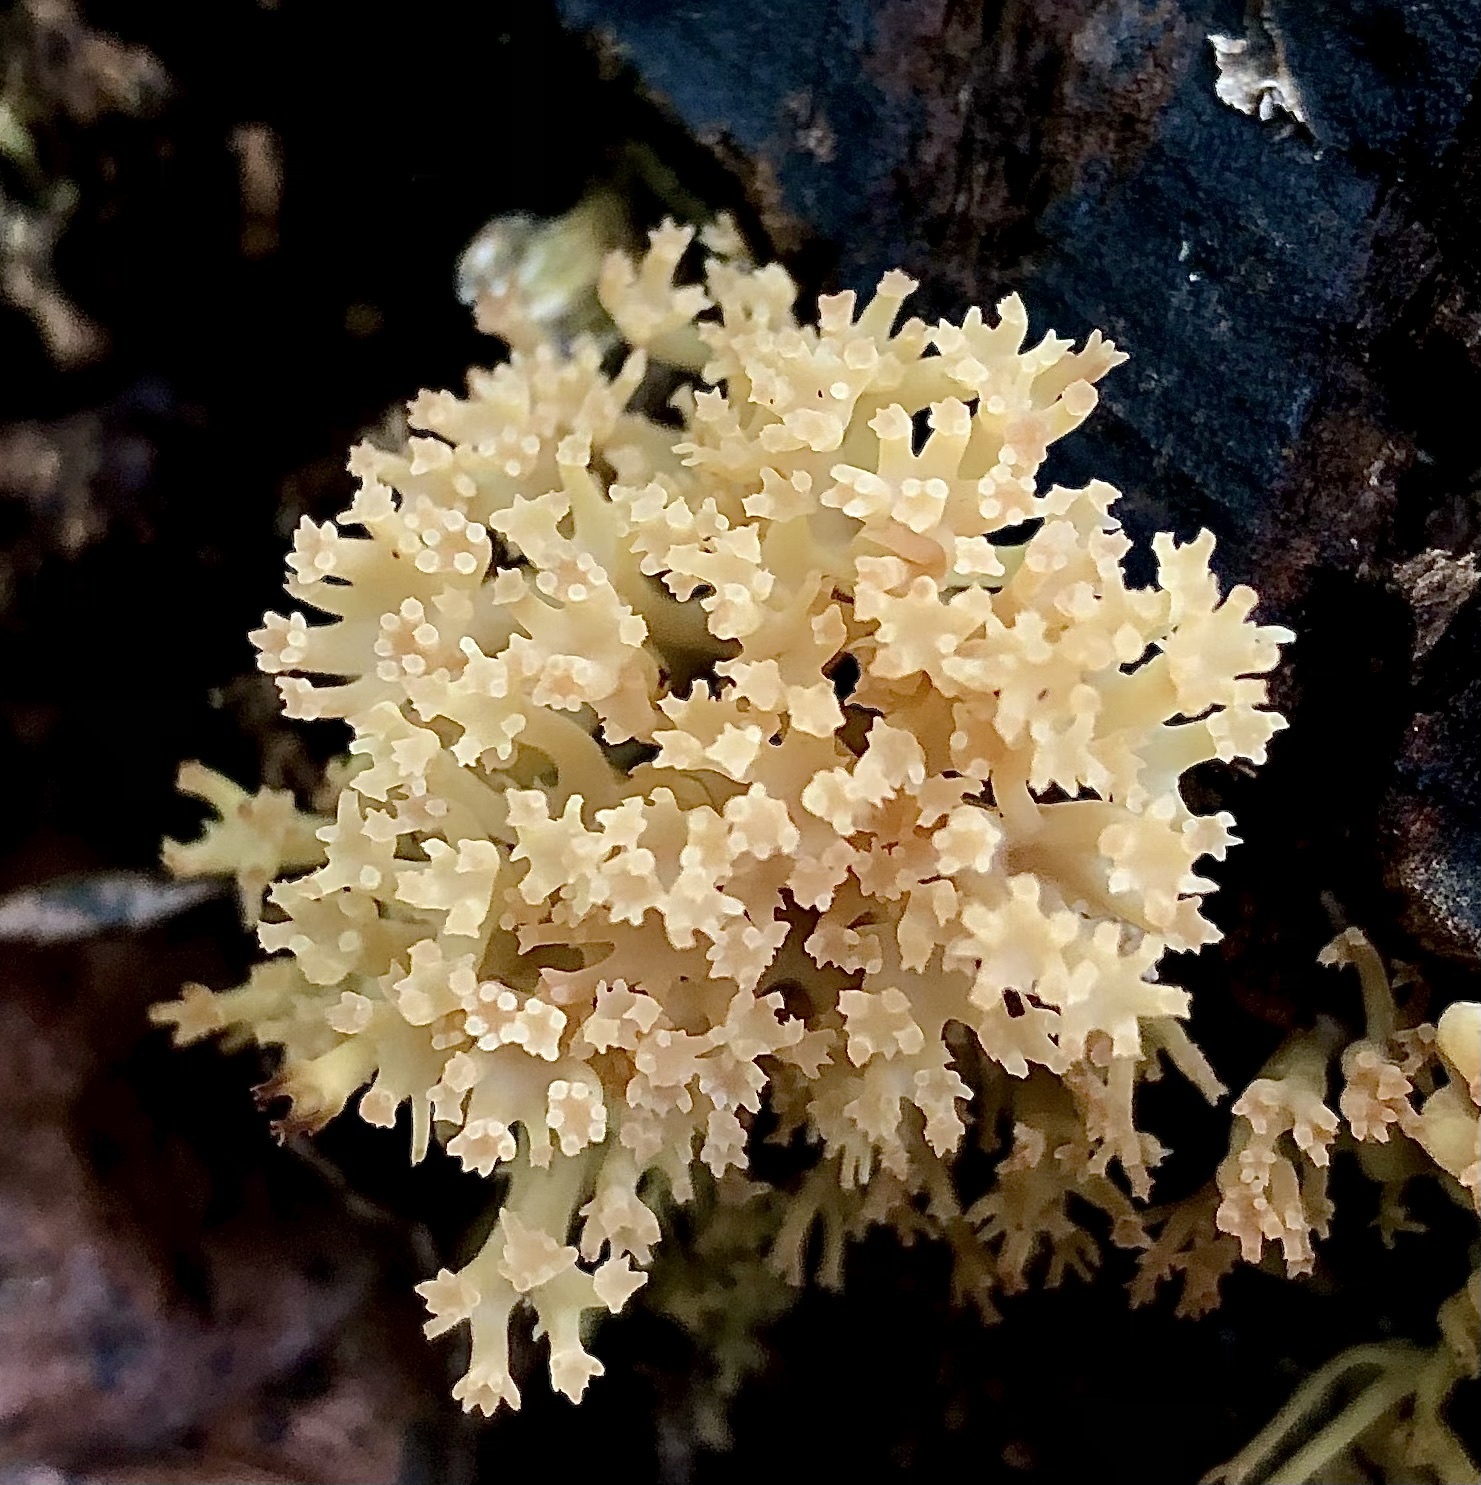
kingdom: Fungi
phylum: Basidiomycota
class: Agaricomycetes
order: Russulales
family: Auriscalpiaceae
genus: Artomyces
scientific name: Artomyces pyxidatus
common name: Crown-tipped coral fungus
